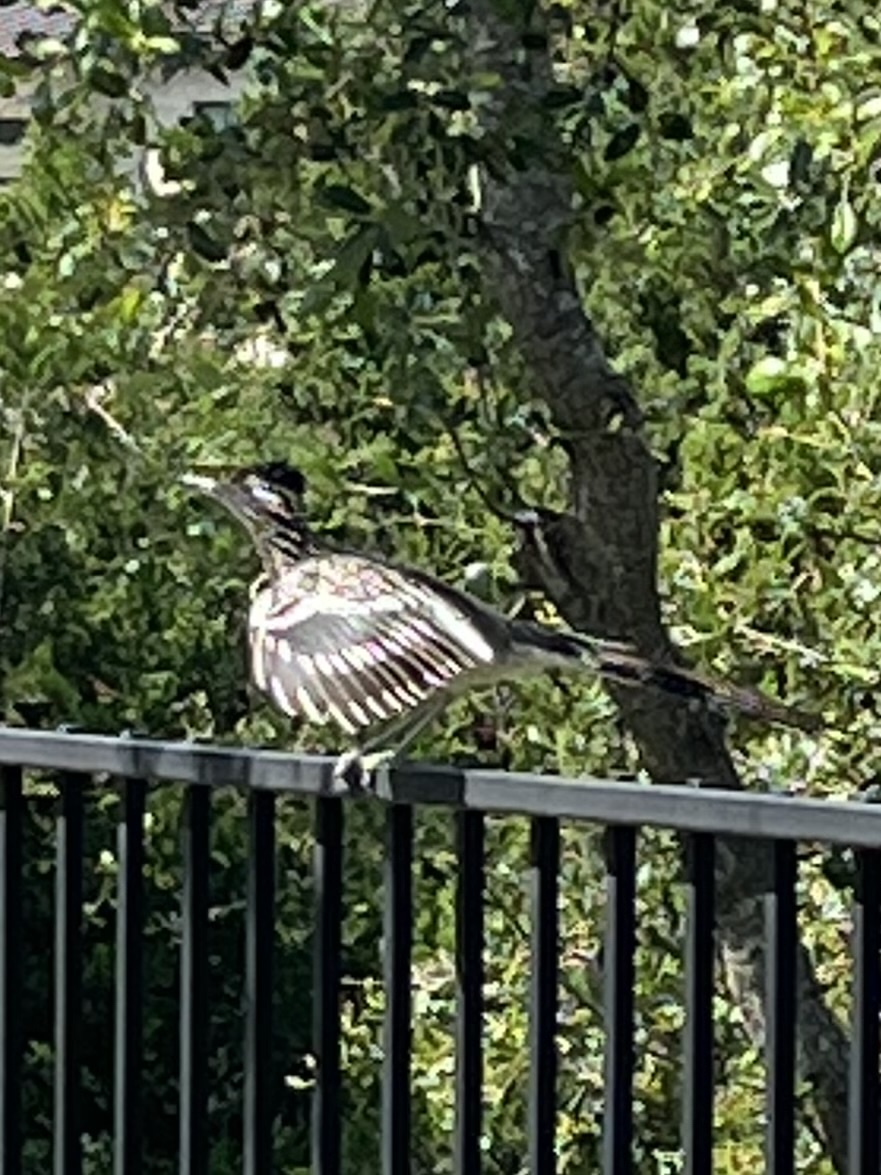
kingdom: Animalia
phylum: Chordata
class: Aves
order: Cuculiformes
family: Cuculidae
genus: Geococcyx
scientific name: Geococcyx californianus
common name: Greater roadrunner
